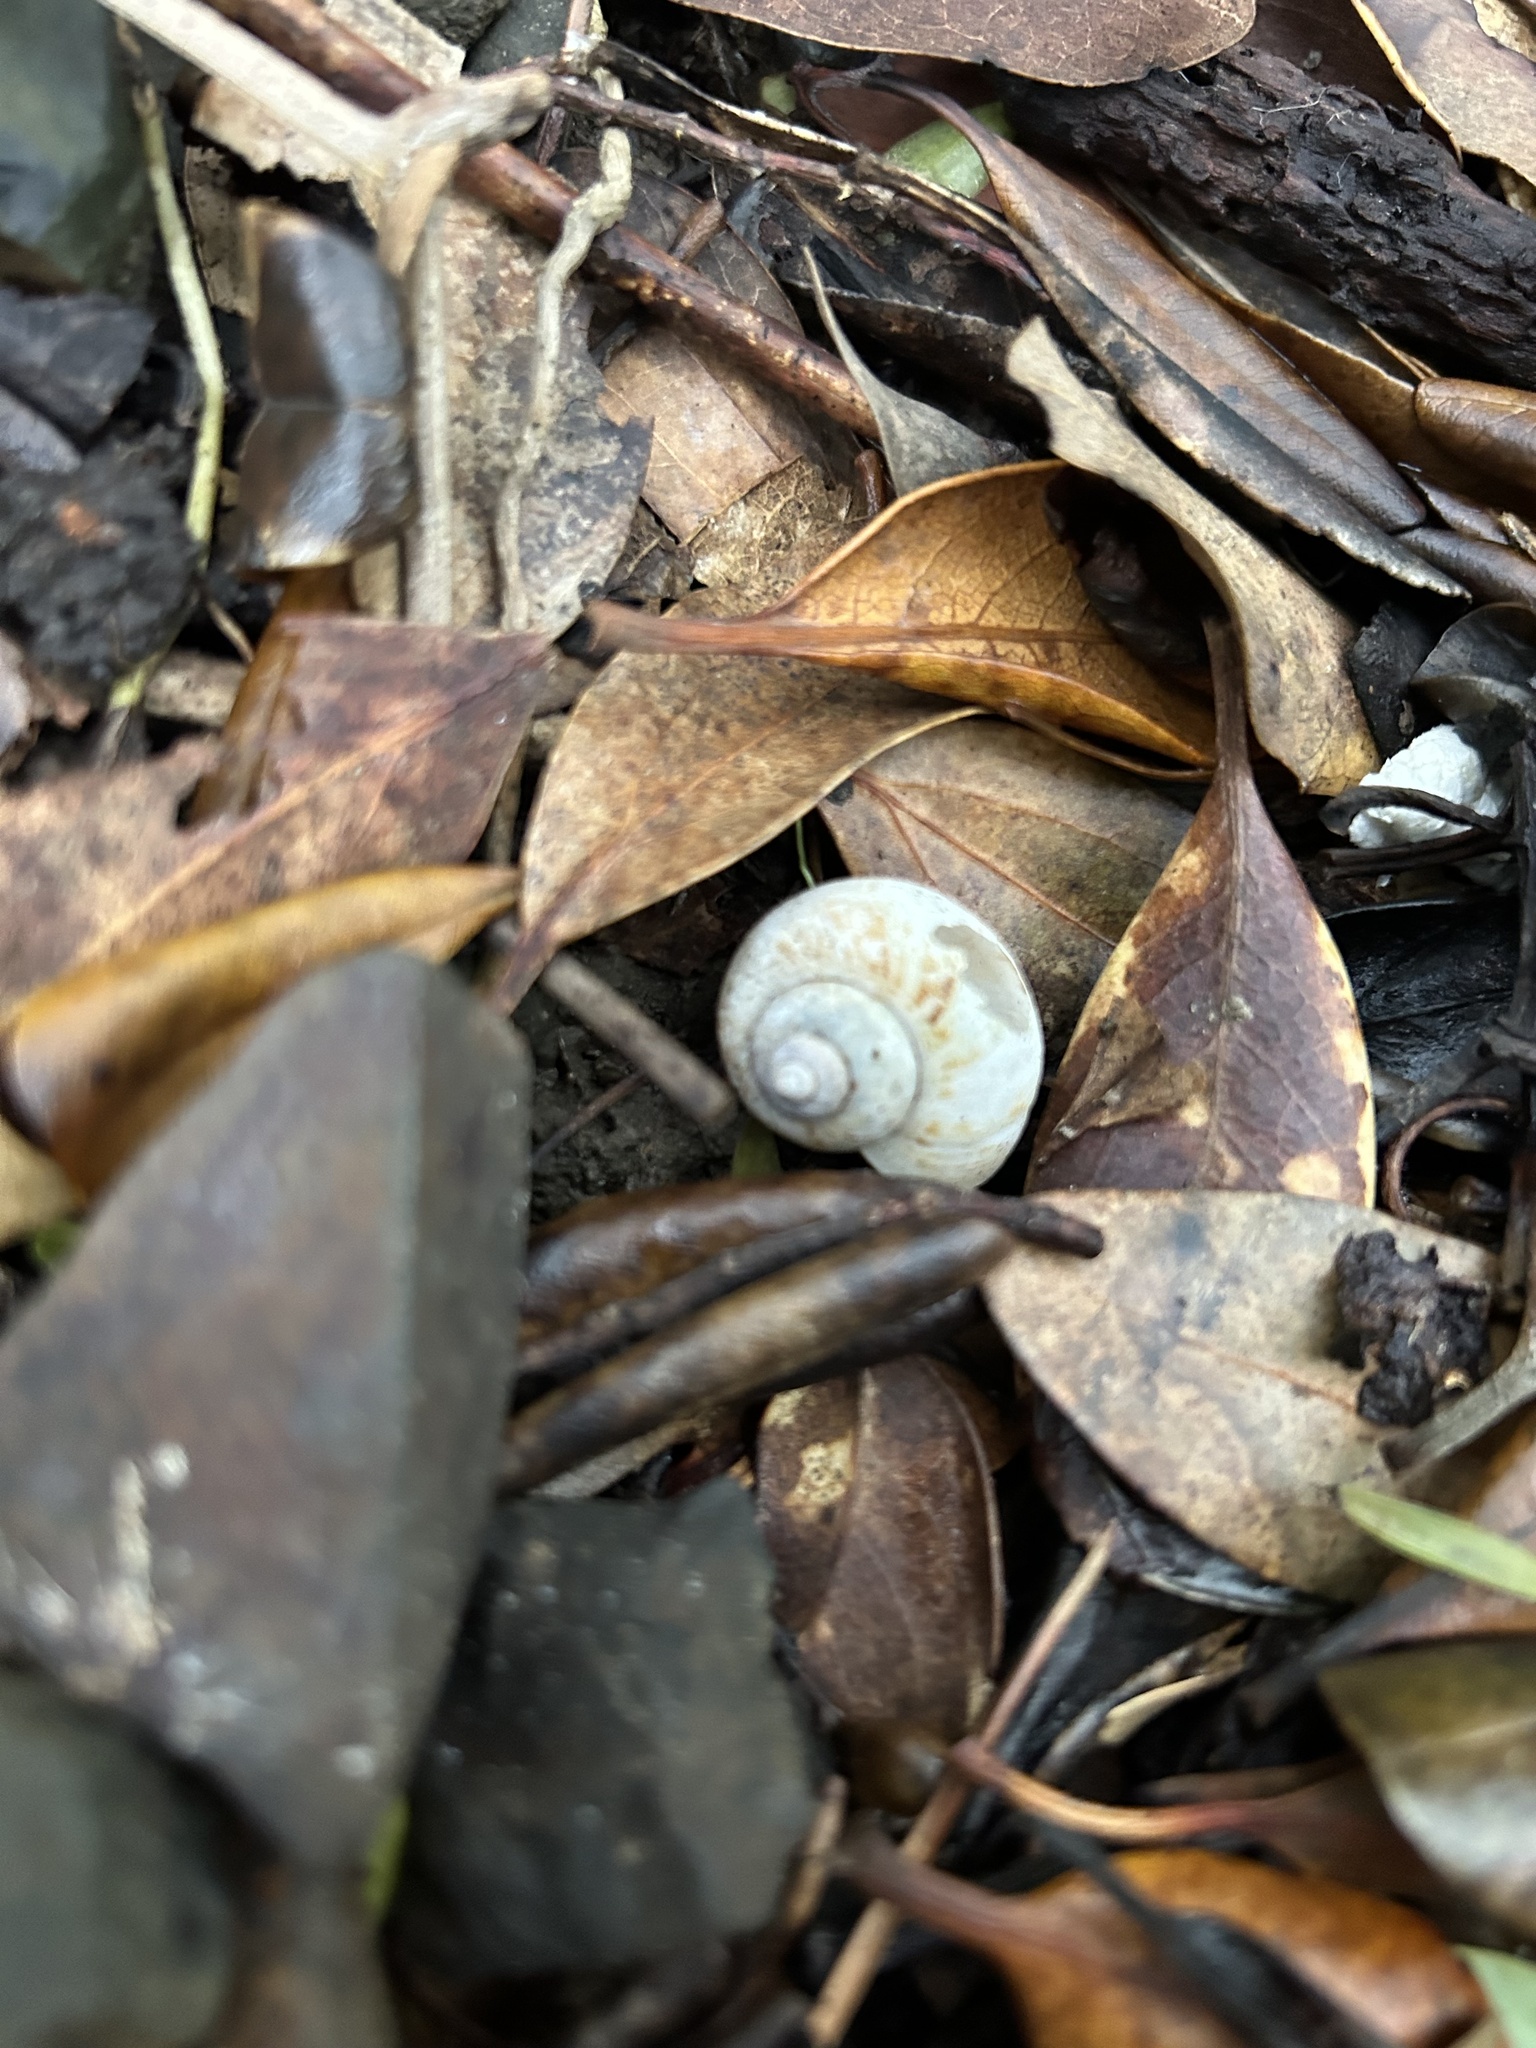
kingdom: Animalia
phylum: Mollusca
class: Gastropoda
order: Architaenioglossa
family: Cyclophoridae
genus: Cyclophorus
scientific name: Cyclophorus herklotsi
